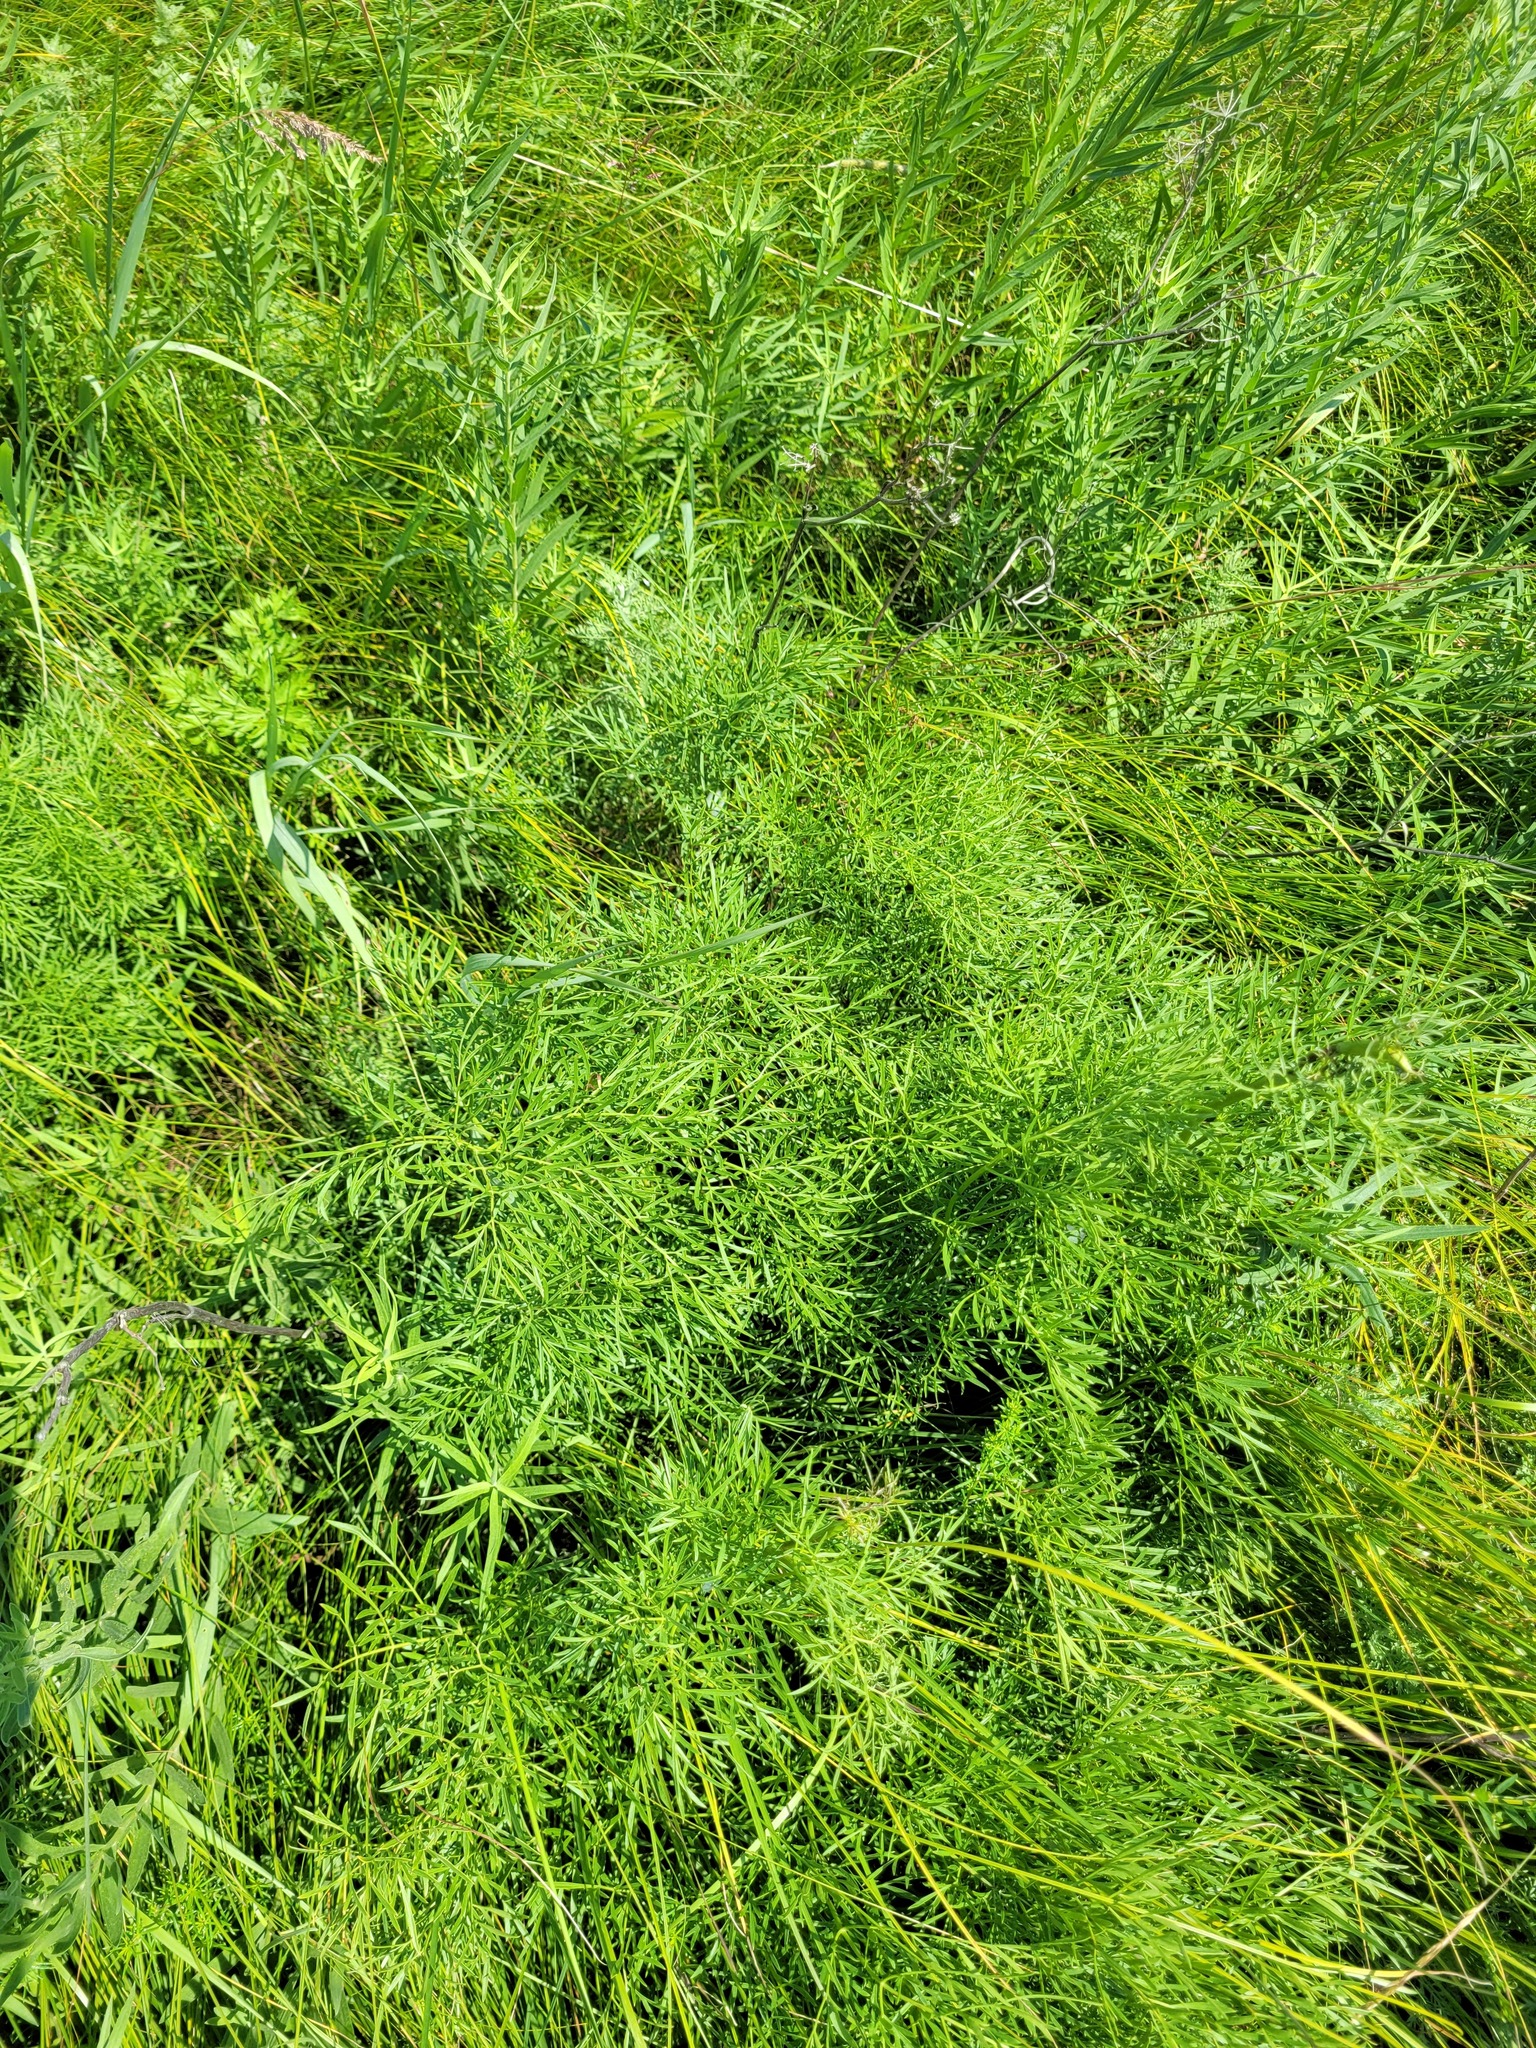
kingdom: Plantae
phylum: Tracheophyta
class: Magnoliopsida
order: Apiales
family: Apiaceae
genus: Silaum
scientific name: Silaum silaus
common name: Pepper-saxifrage
